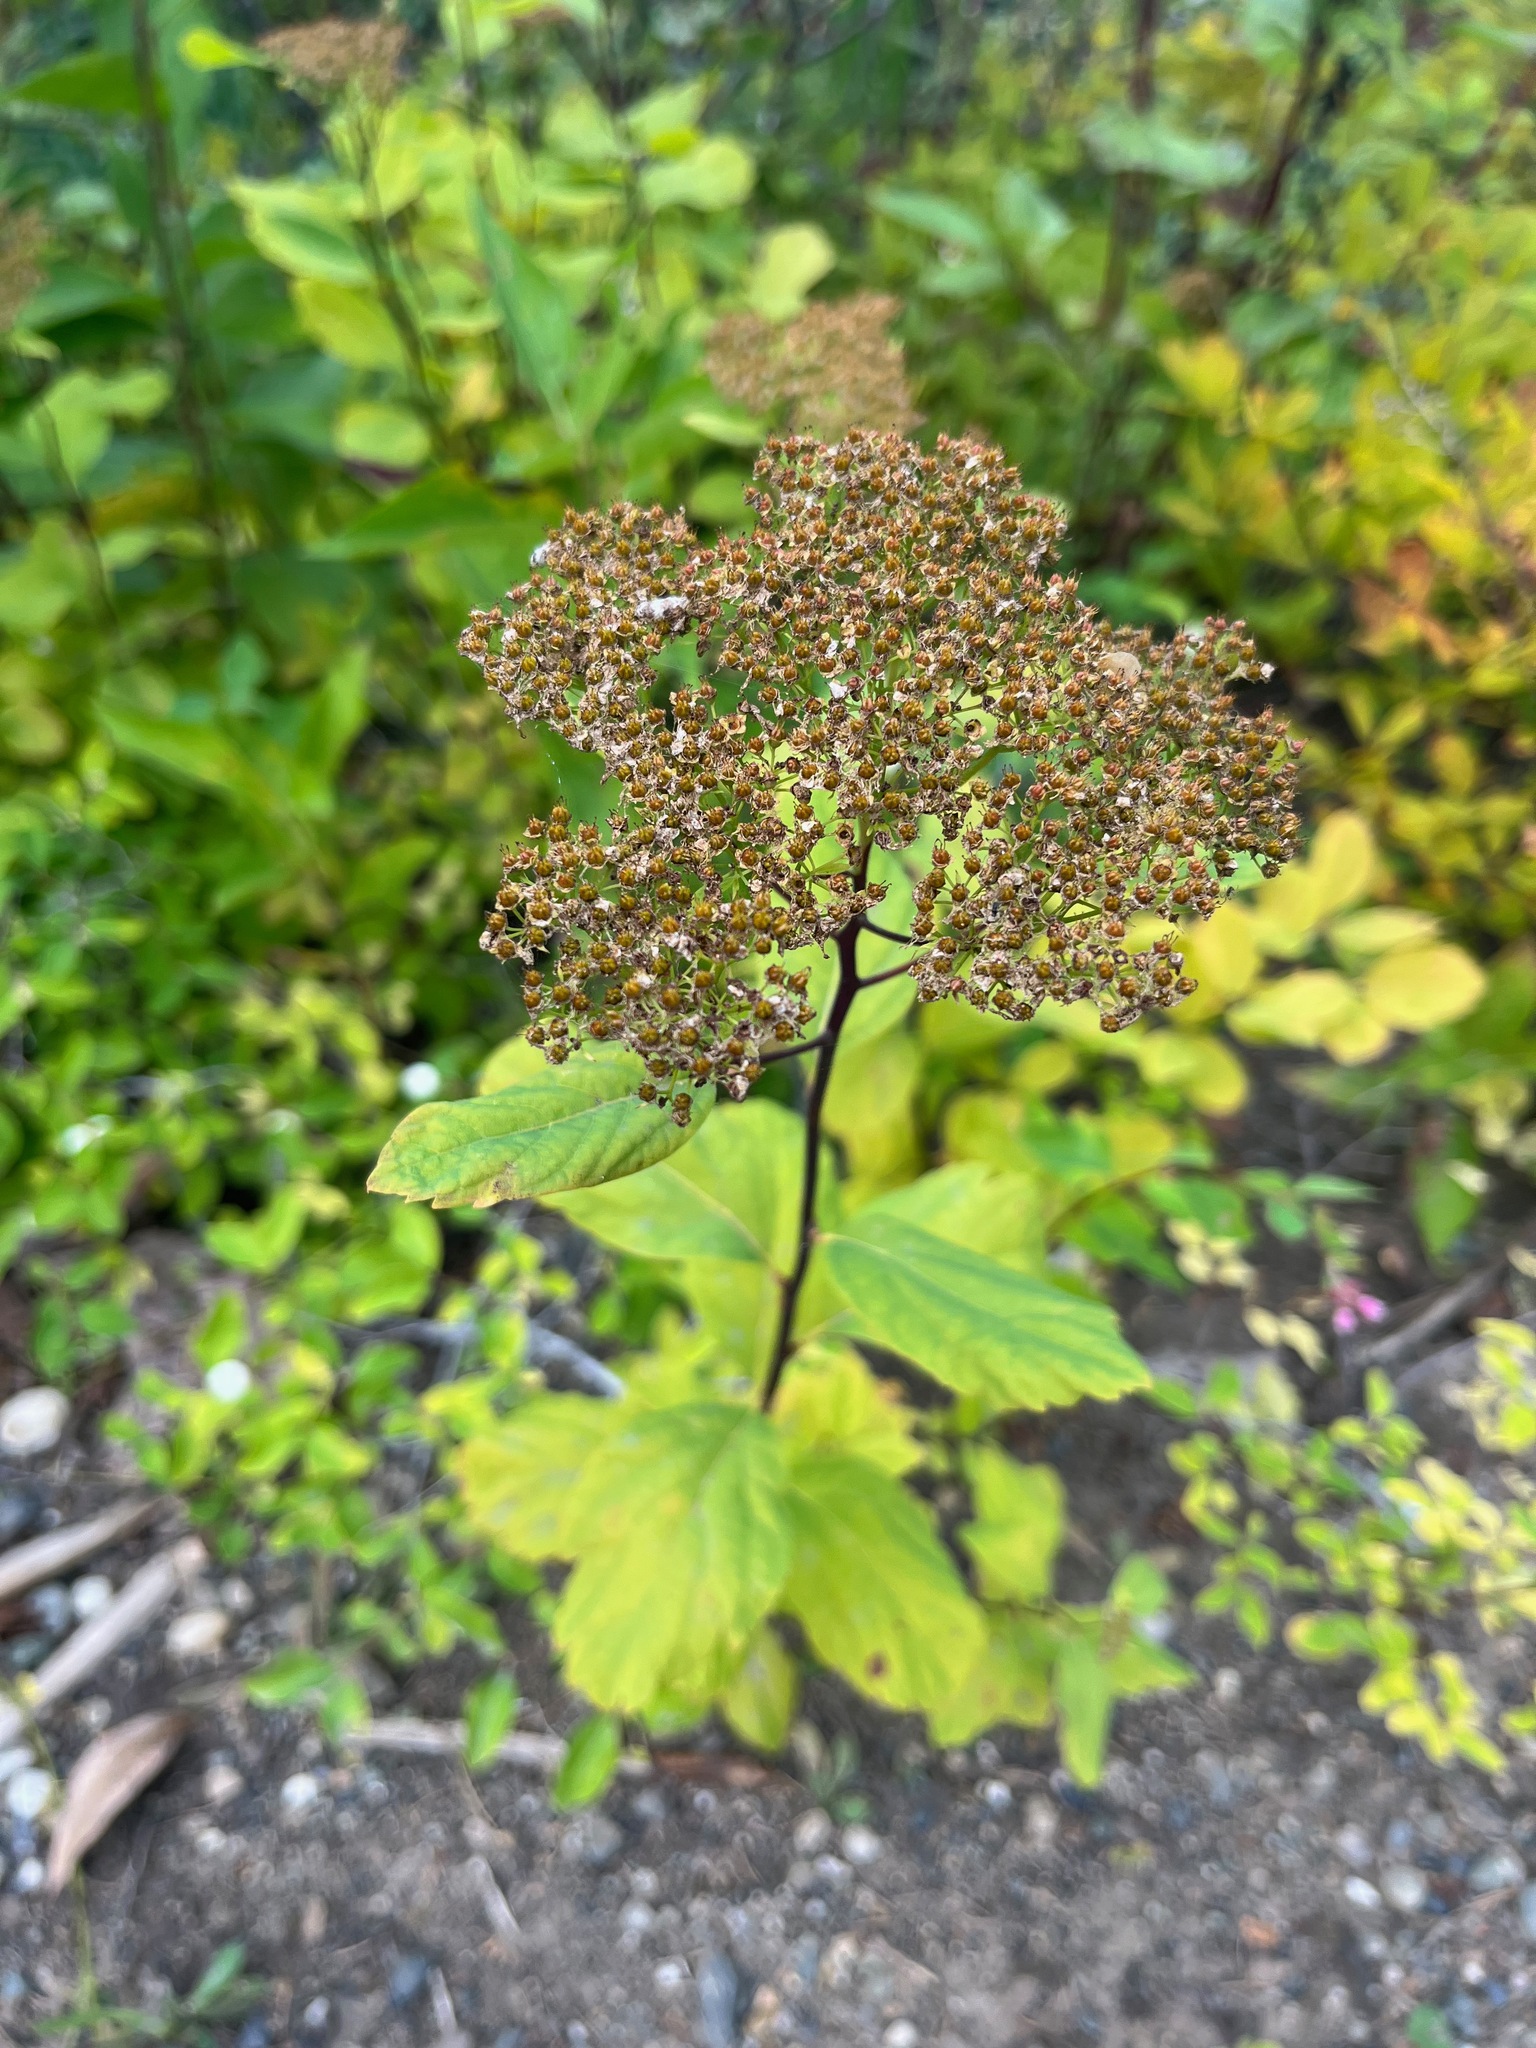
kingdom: Plantae
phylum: Tracheophyta
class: Magnoliopsida
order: Rosales
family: Rosaceae
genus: Spiraea
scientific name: Spiraea lucida
